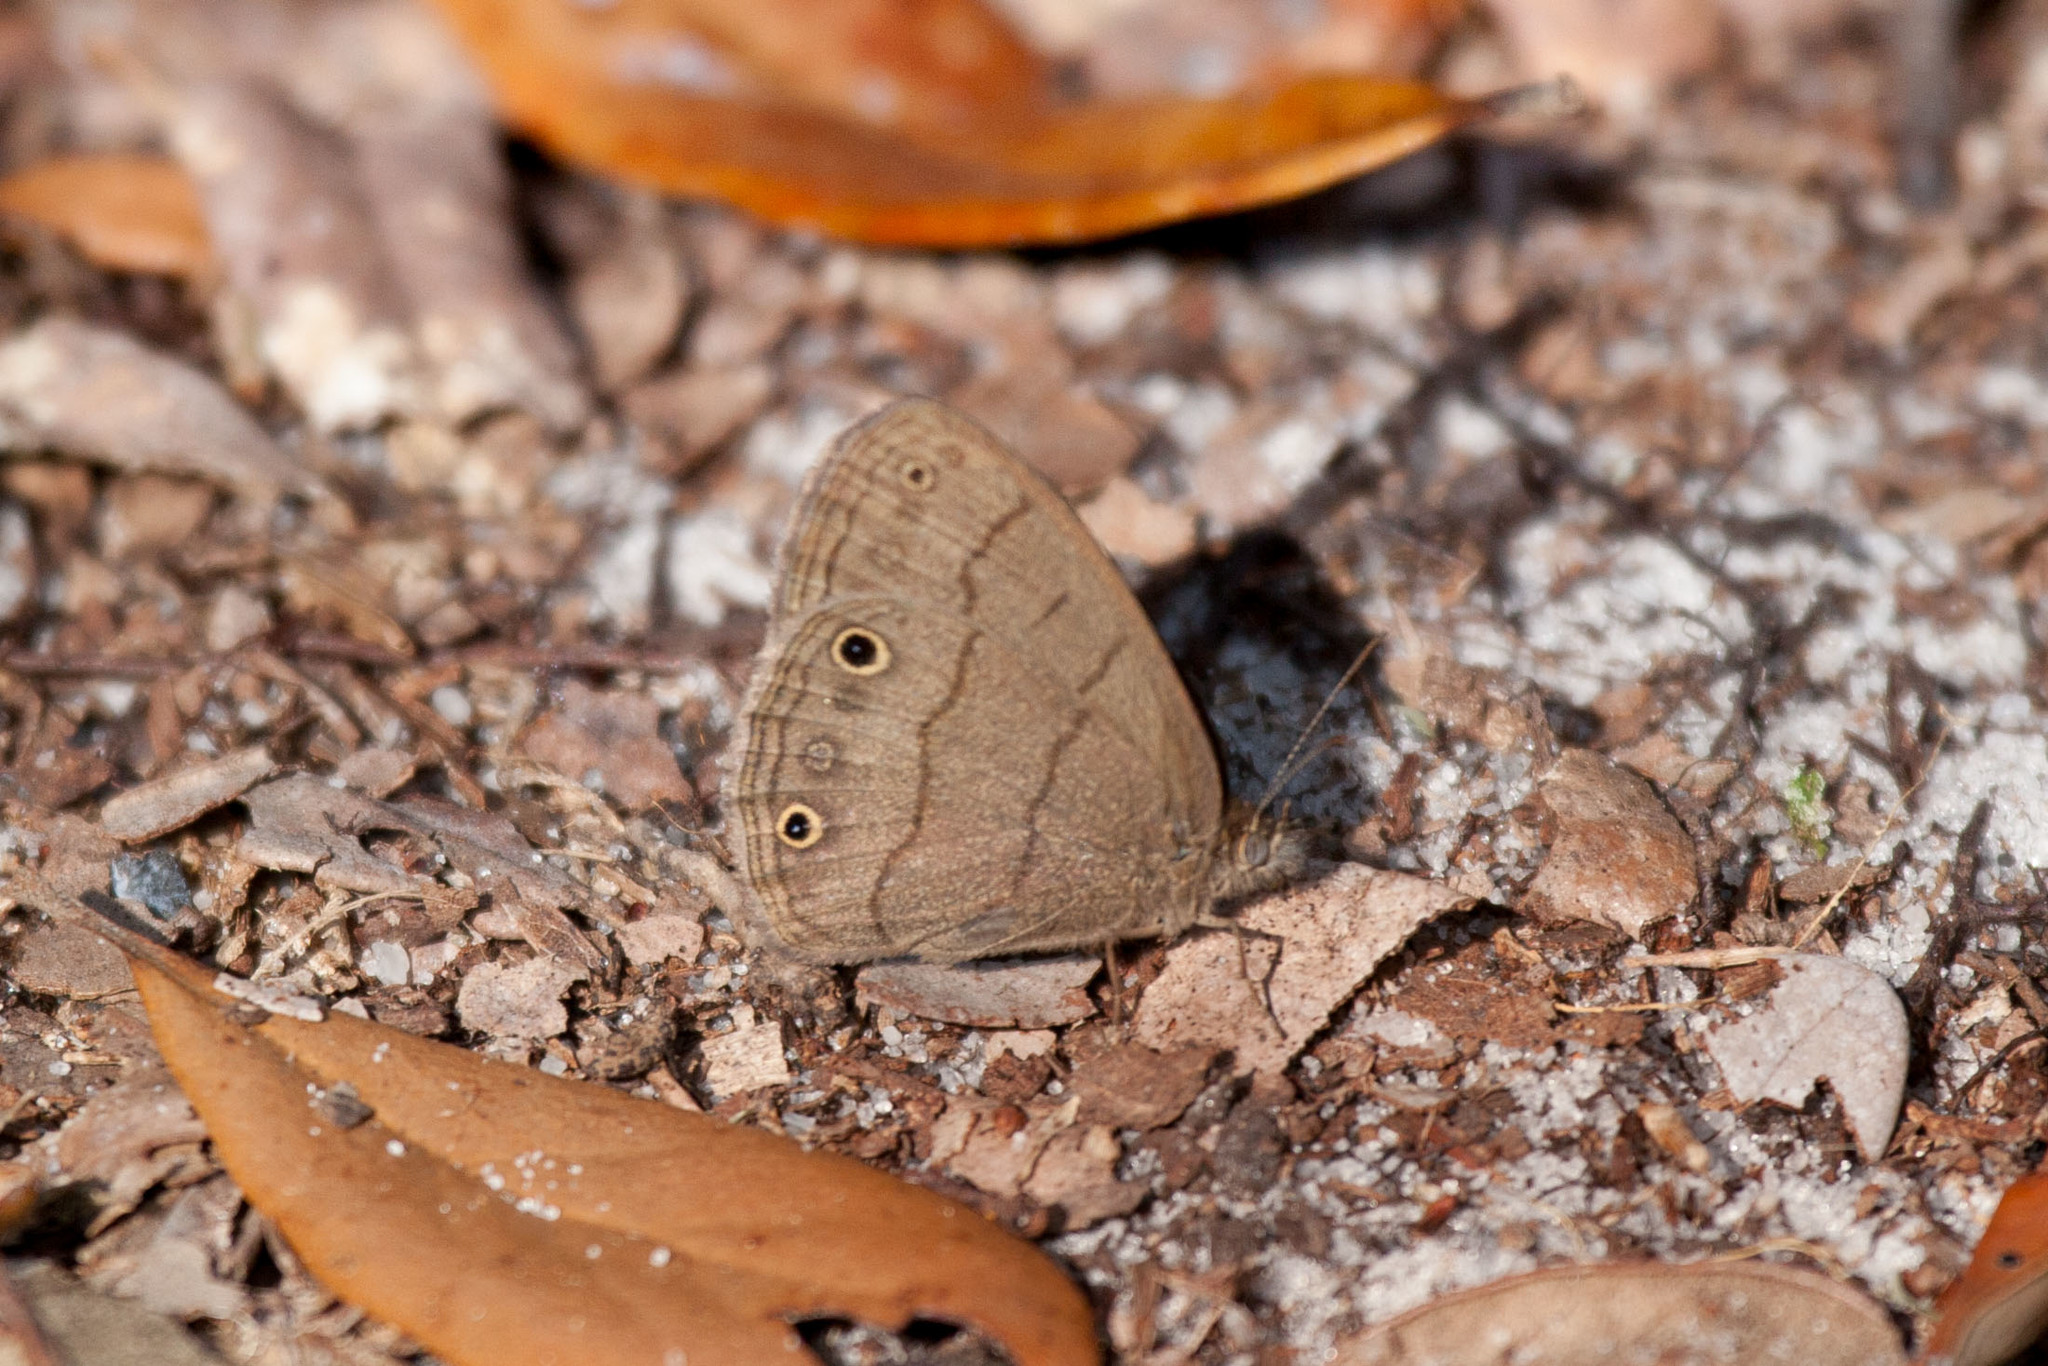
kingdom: Animalia
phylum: Arthropoda
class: Insecta
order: Lepidoptera
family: Nymphalidae
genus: Hermeuptychia
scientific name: Hermeuptychia hermes
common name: Hermes satyr
